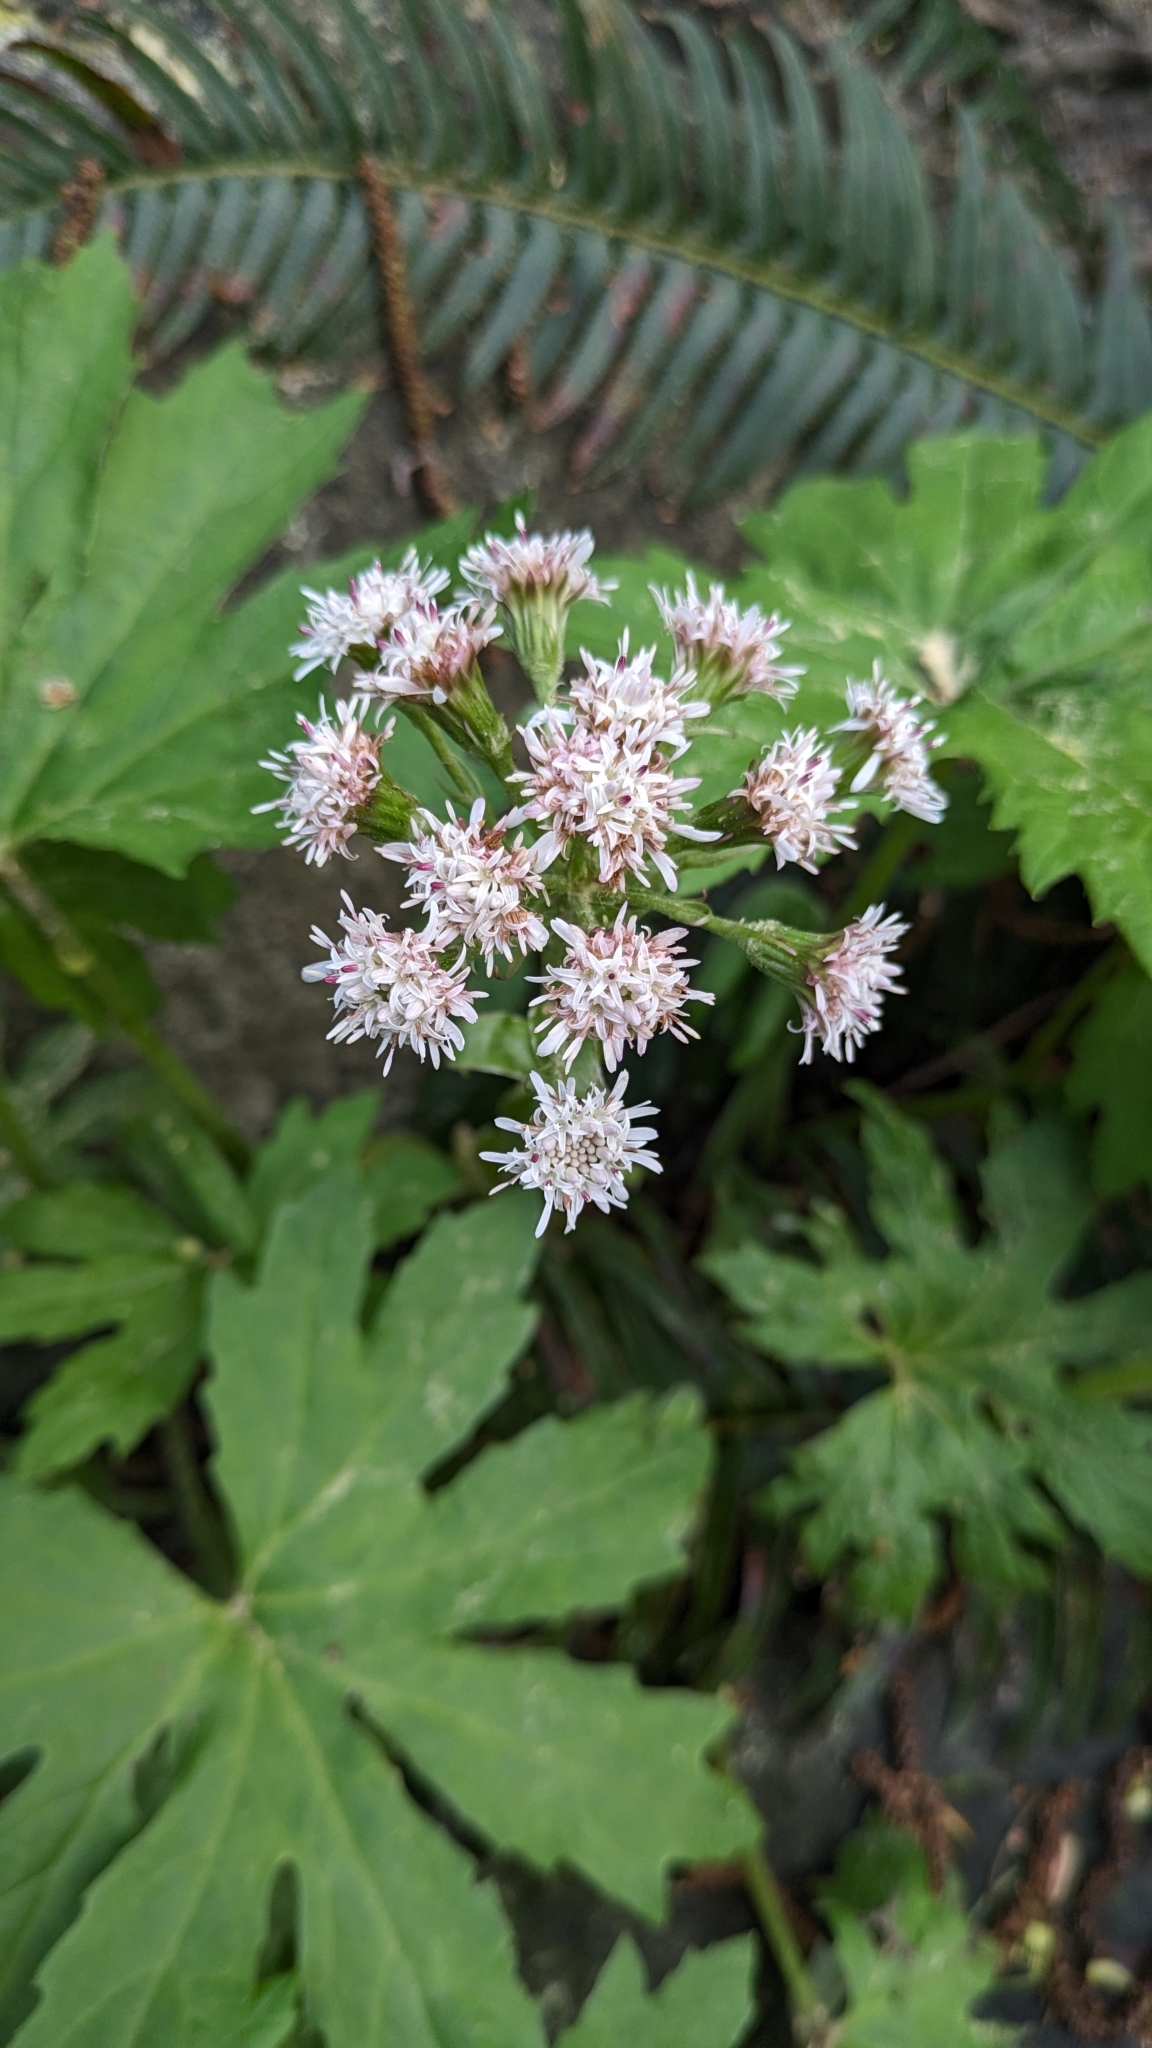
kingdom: Plantae
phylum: Tracheophyta
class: Magnoliopsida
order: Asterales
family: Asteraceae
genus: Petasites
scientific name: Petasites frigidus
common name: Arctic butterbur
